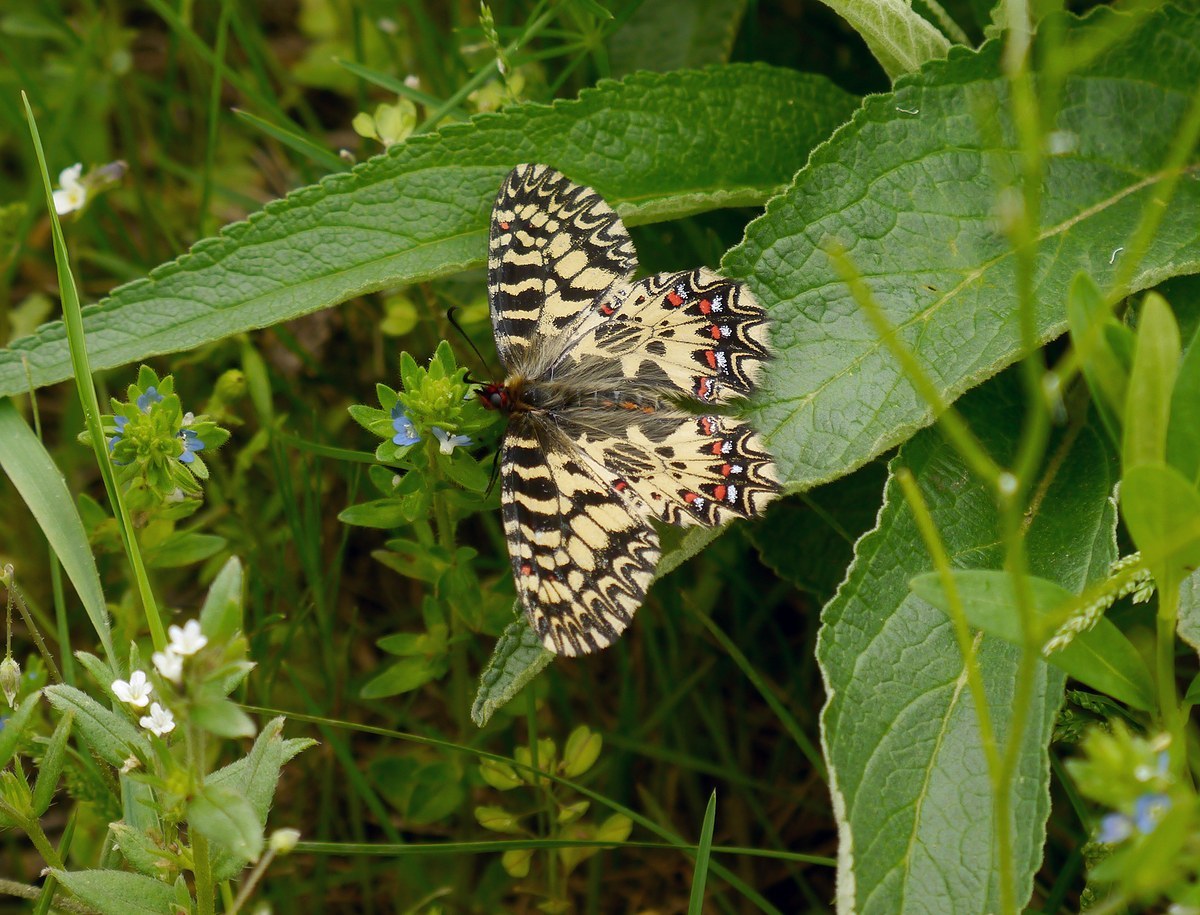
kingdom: Animalia
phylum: Arthropoda
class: Insecta
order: Lepidoptera
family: Papilionidae
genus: Zerynthia
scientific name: Zerynthia polyxena
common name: Southern festoon
